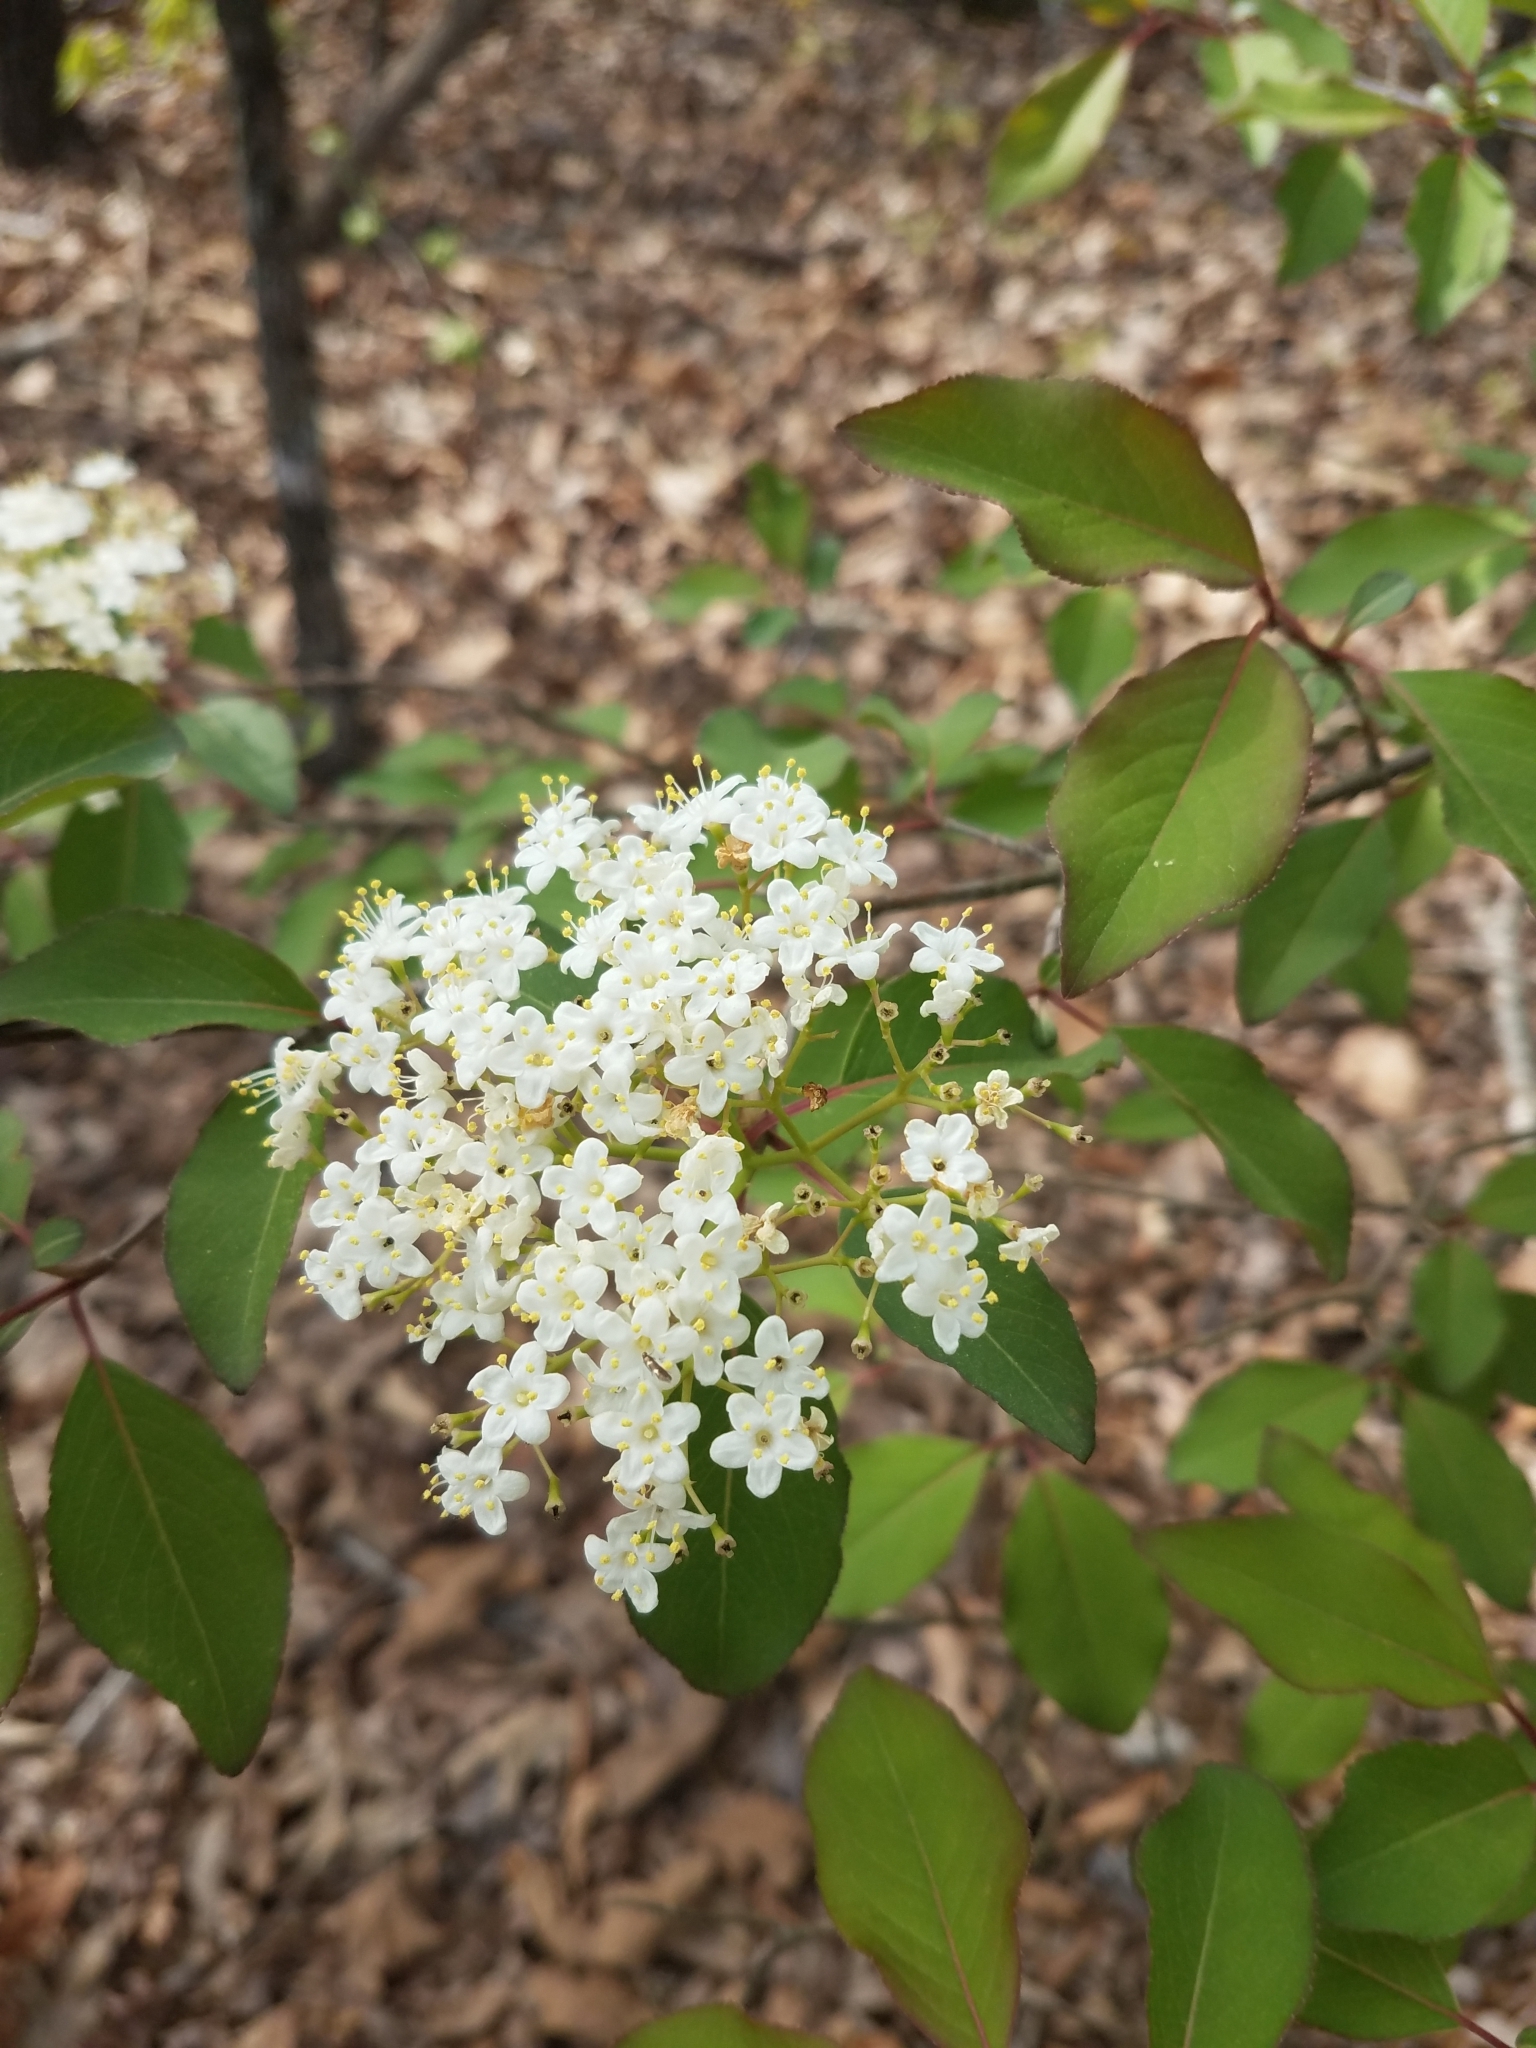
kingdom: Plantae
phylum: Tracheophyta
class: Magnoliopsida
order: Dipsacales
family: Viburnaceae
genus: Viburnum
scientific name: Viburnum prunifolium
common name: Black haw
